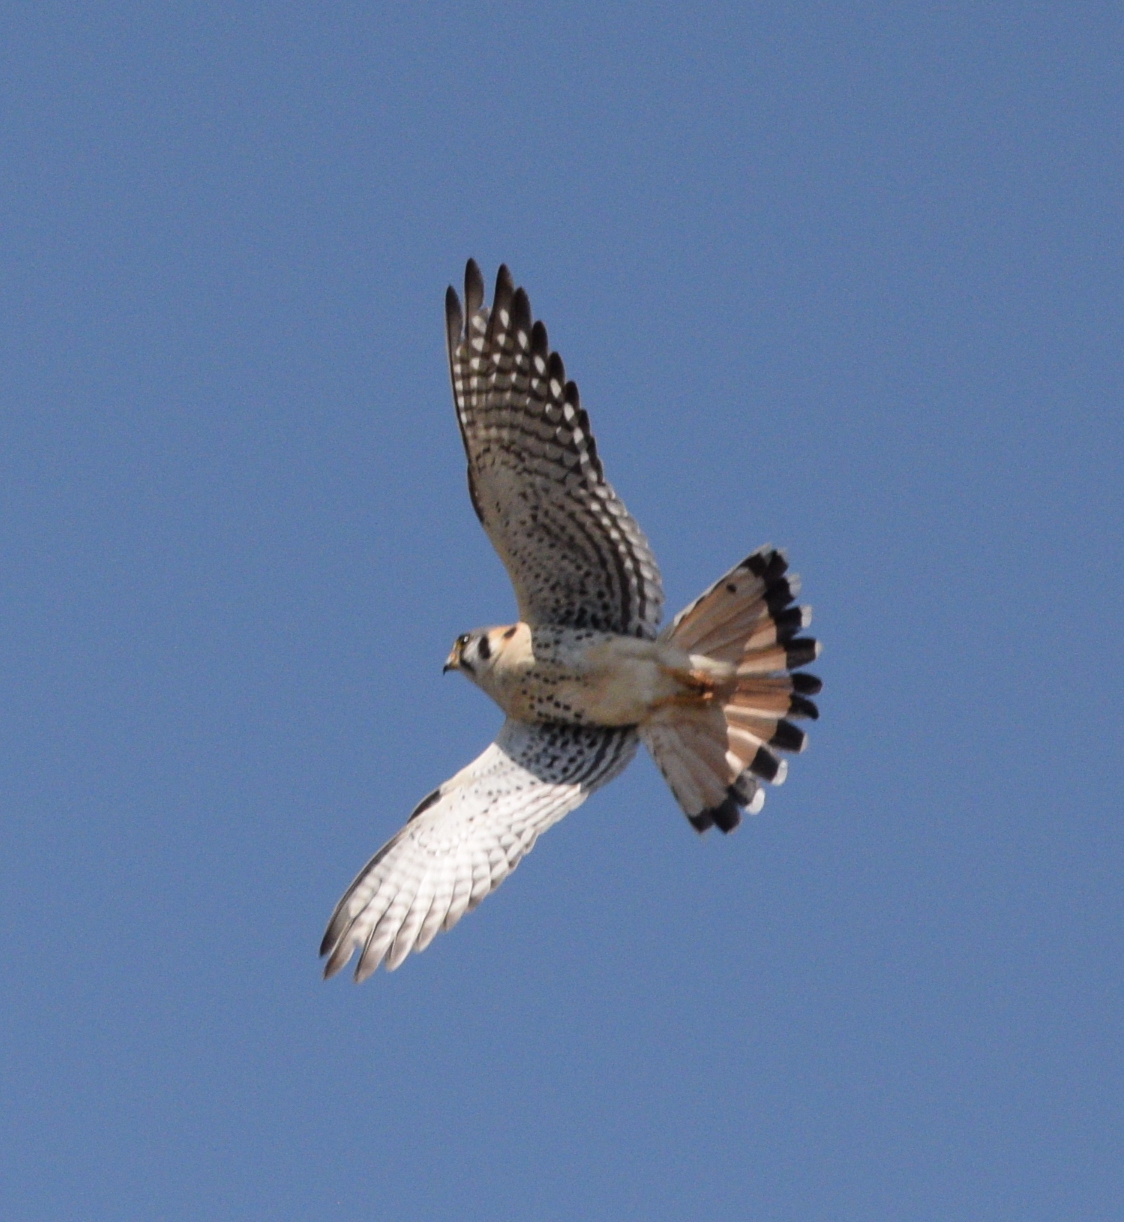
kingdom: Animalia
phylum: Chordata
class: Aves
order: Falconiformes
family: Falconidae
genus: Falco
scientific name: Falco sparverius
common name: American kestrel
